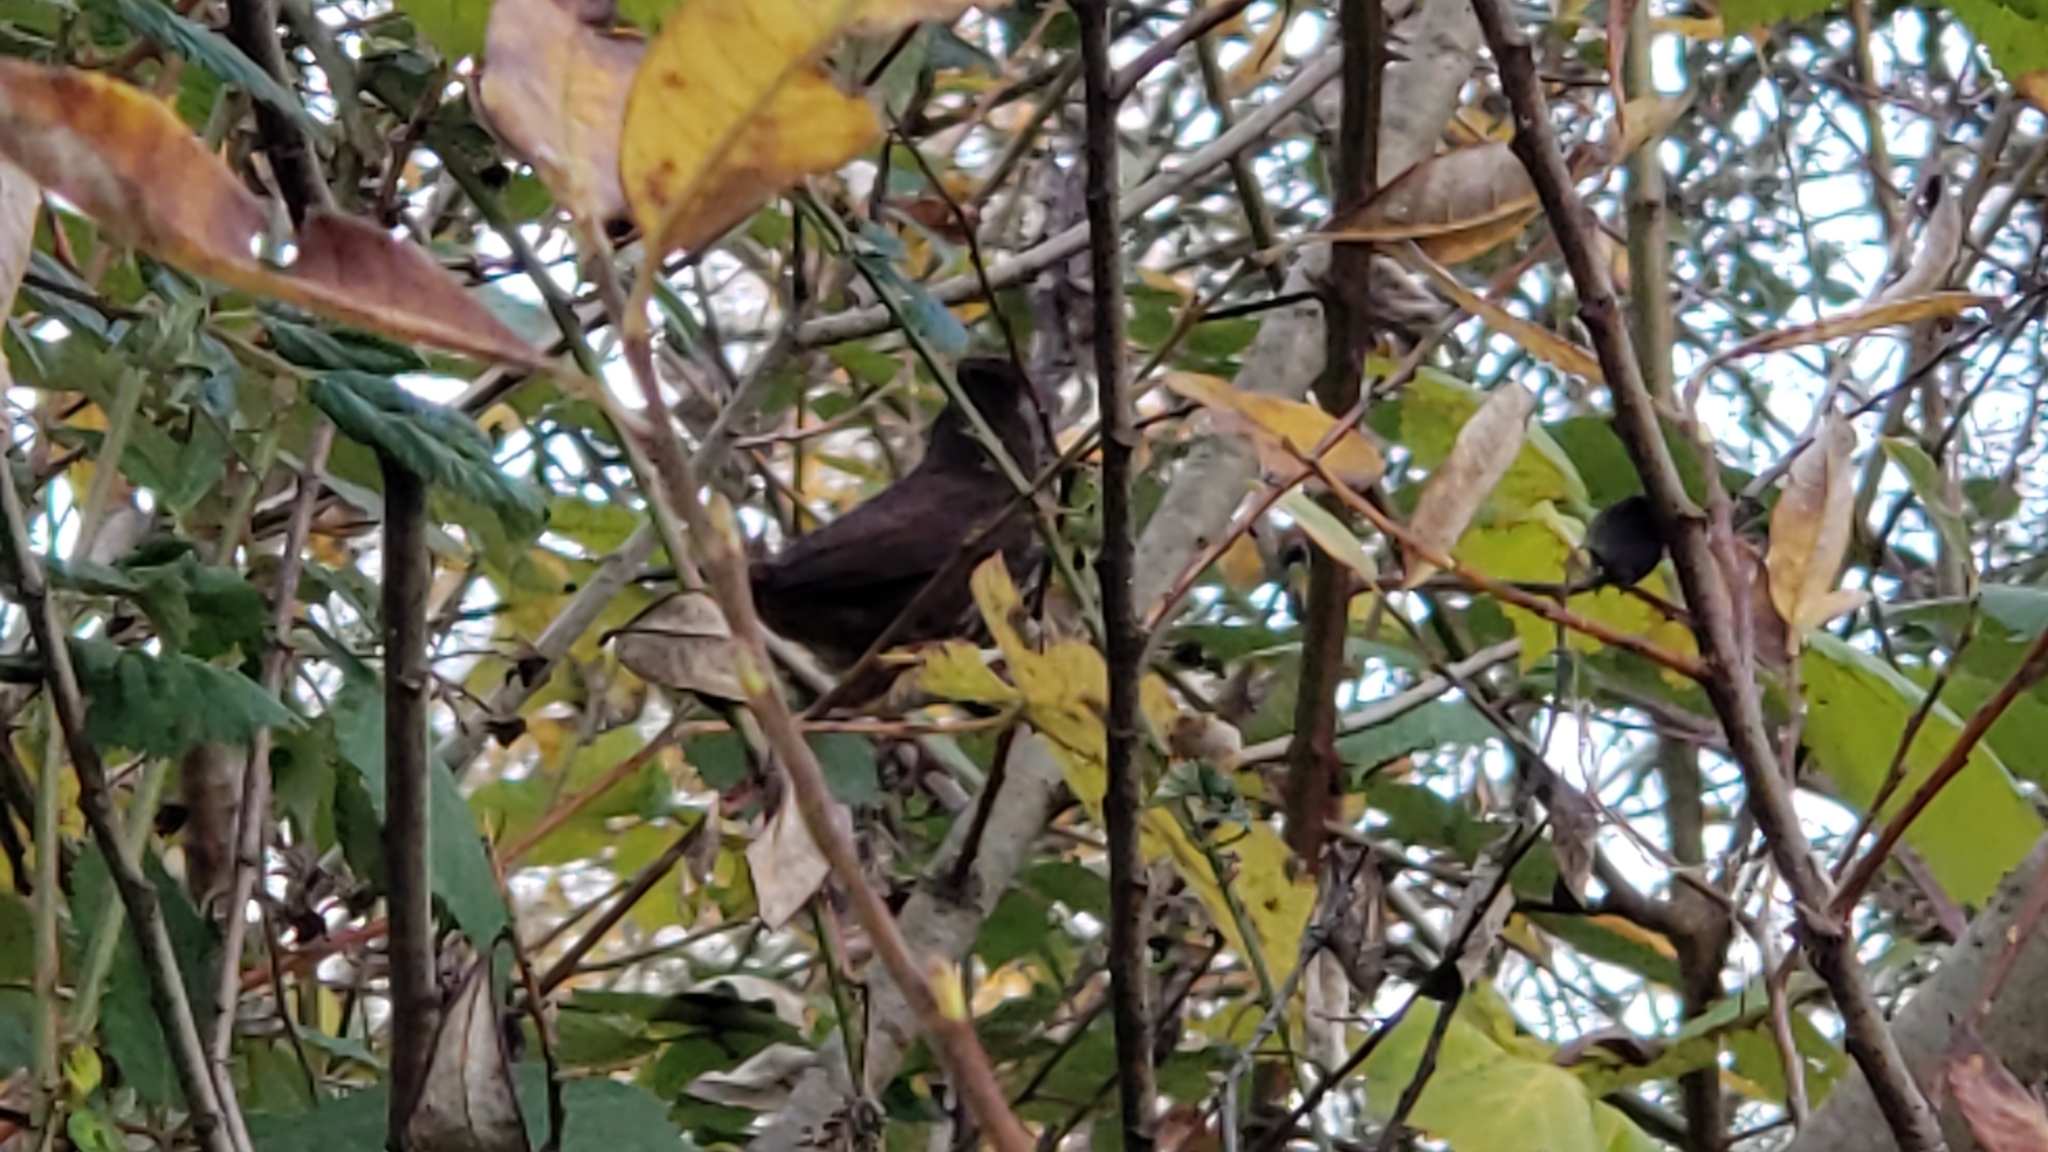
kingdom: Animalia
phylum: Chordata
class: Aves
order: Passeriformes
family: Passerellidae
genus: Passerella
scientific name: Passerella iliaca
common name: Fox sparrow
